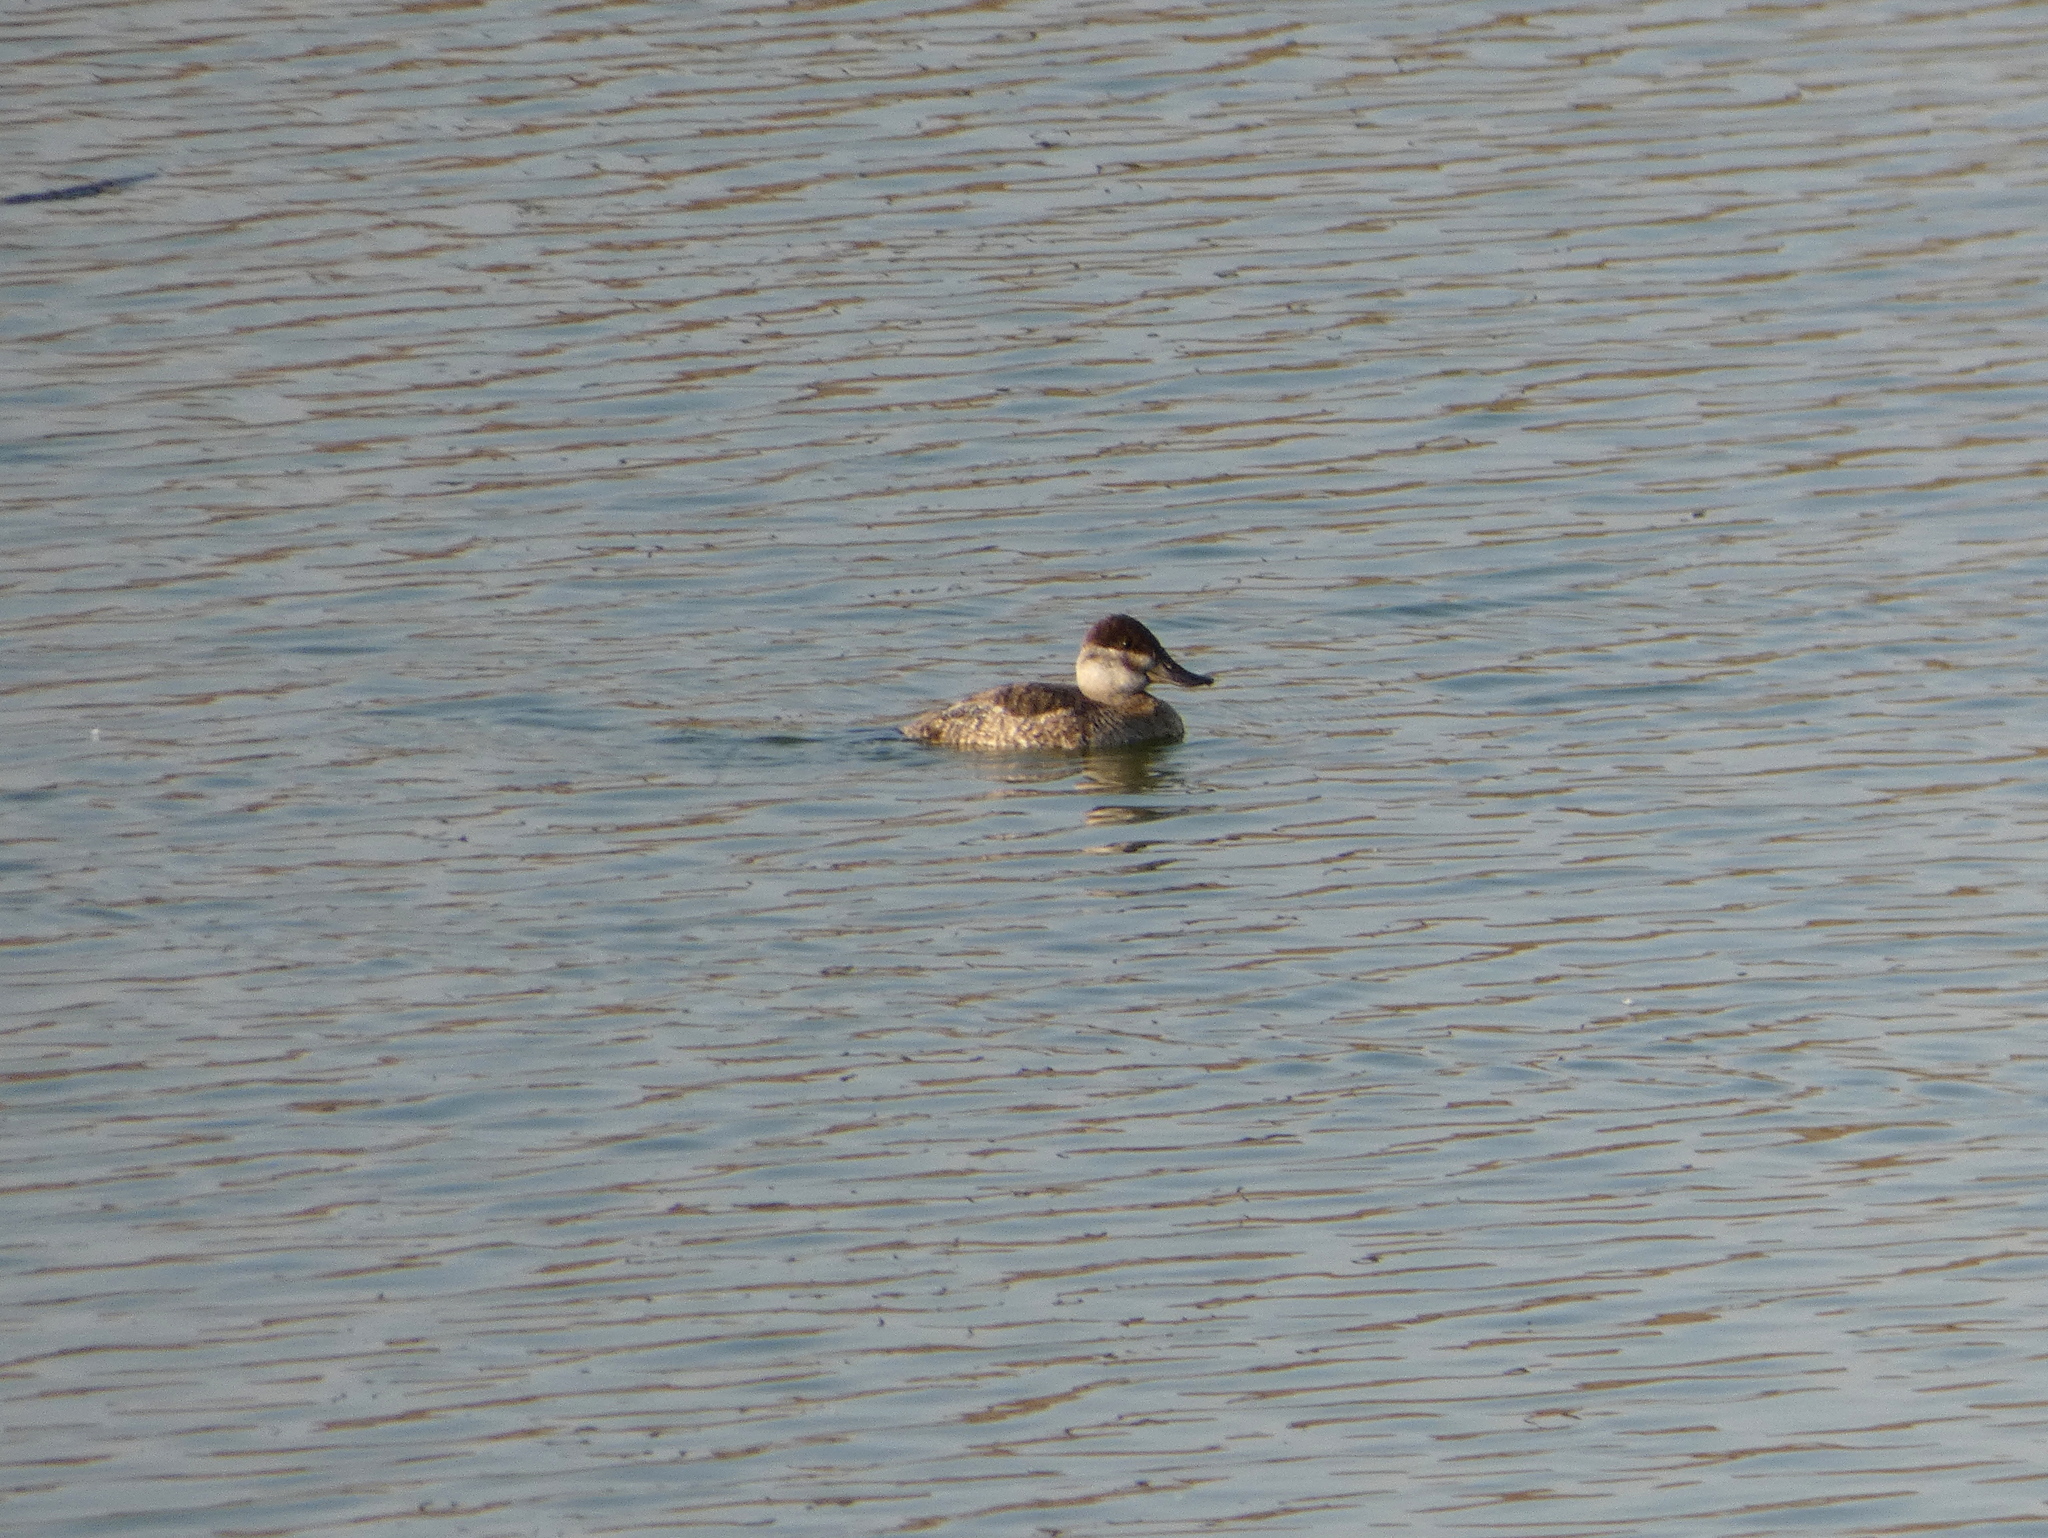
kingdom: Animalia
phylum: Chordata
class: Aves
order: Anseriformes
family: Anatidae
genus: Oxyura
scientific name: Oxyura jamaicensis
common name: Ruddy duck
